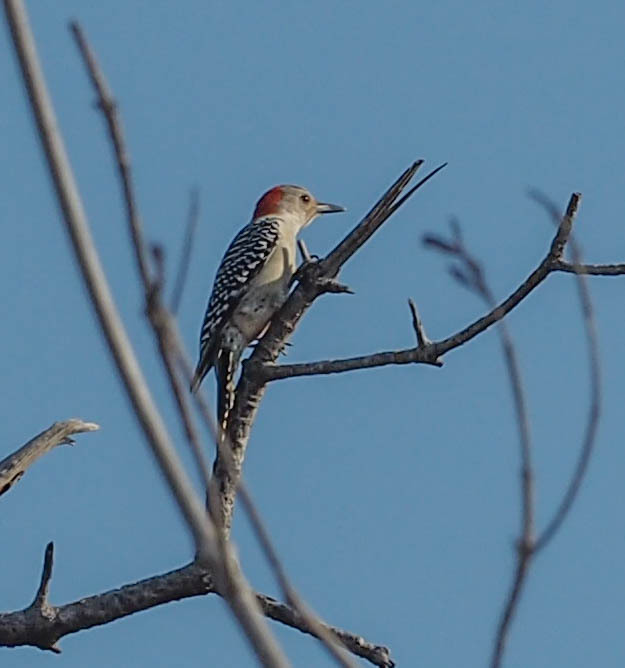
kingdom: Animalia
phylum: Chordata
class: Aves
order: Piciformes
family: Picidae
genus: Melanerpes
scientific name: Melanerpes carolinus
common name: Red-bellied woodpecker
